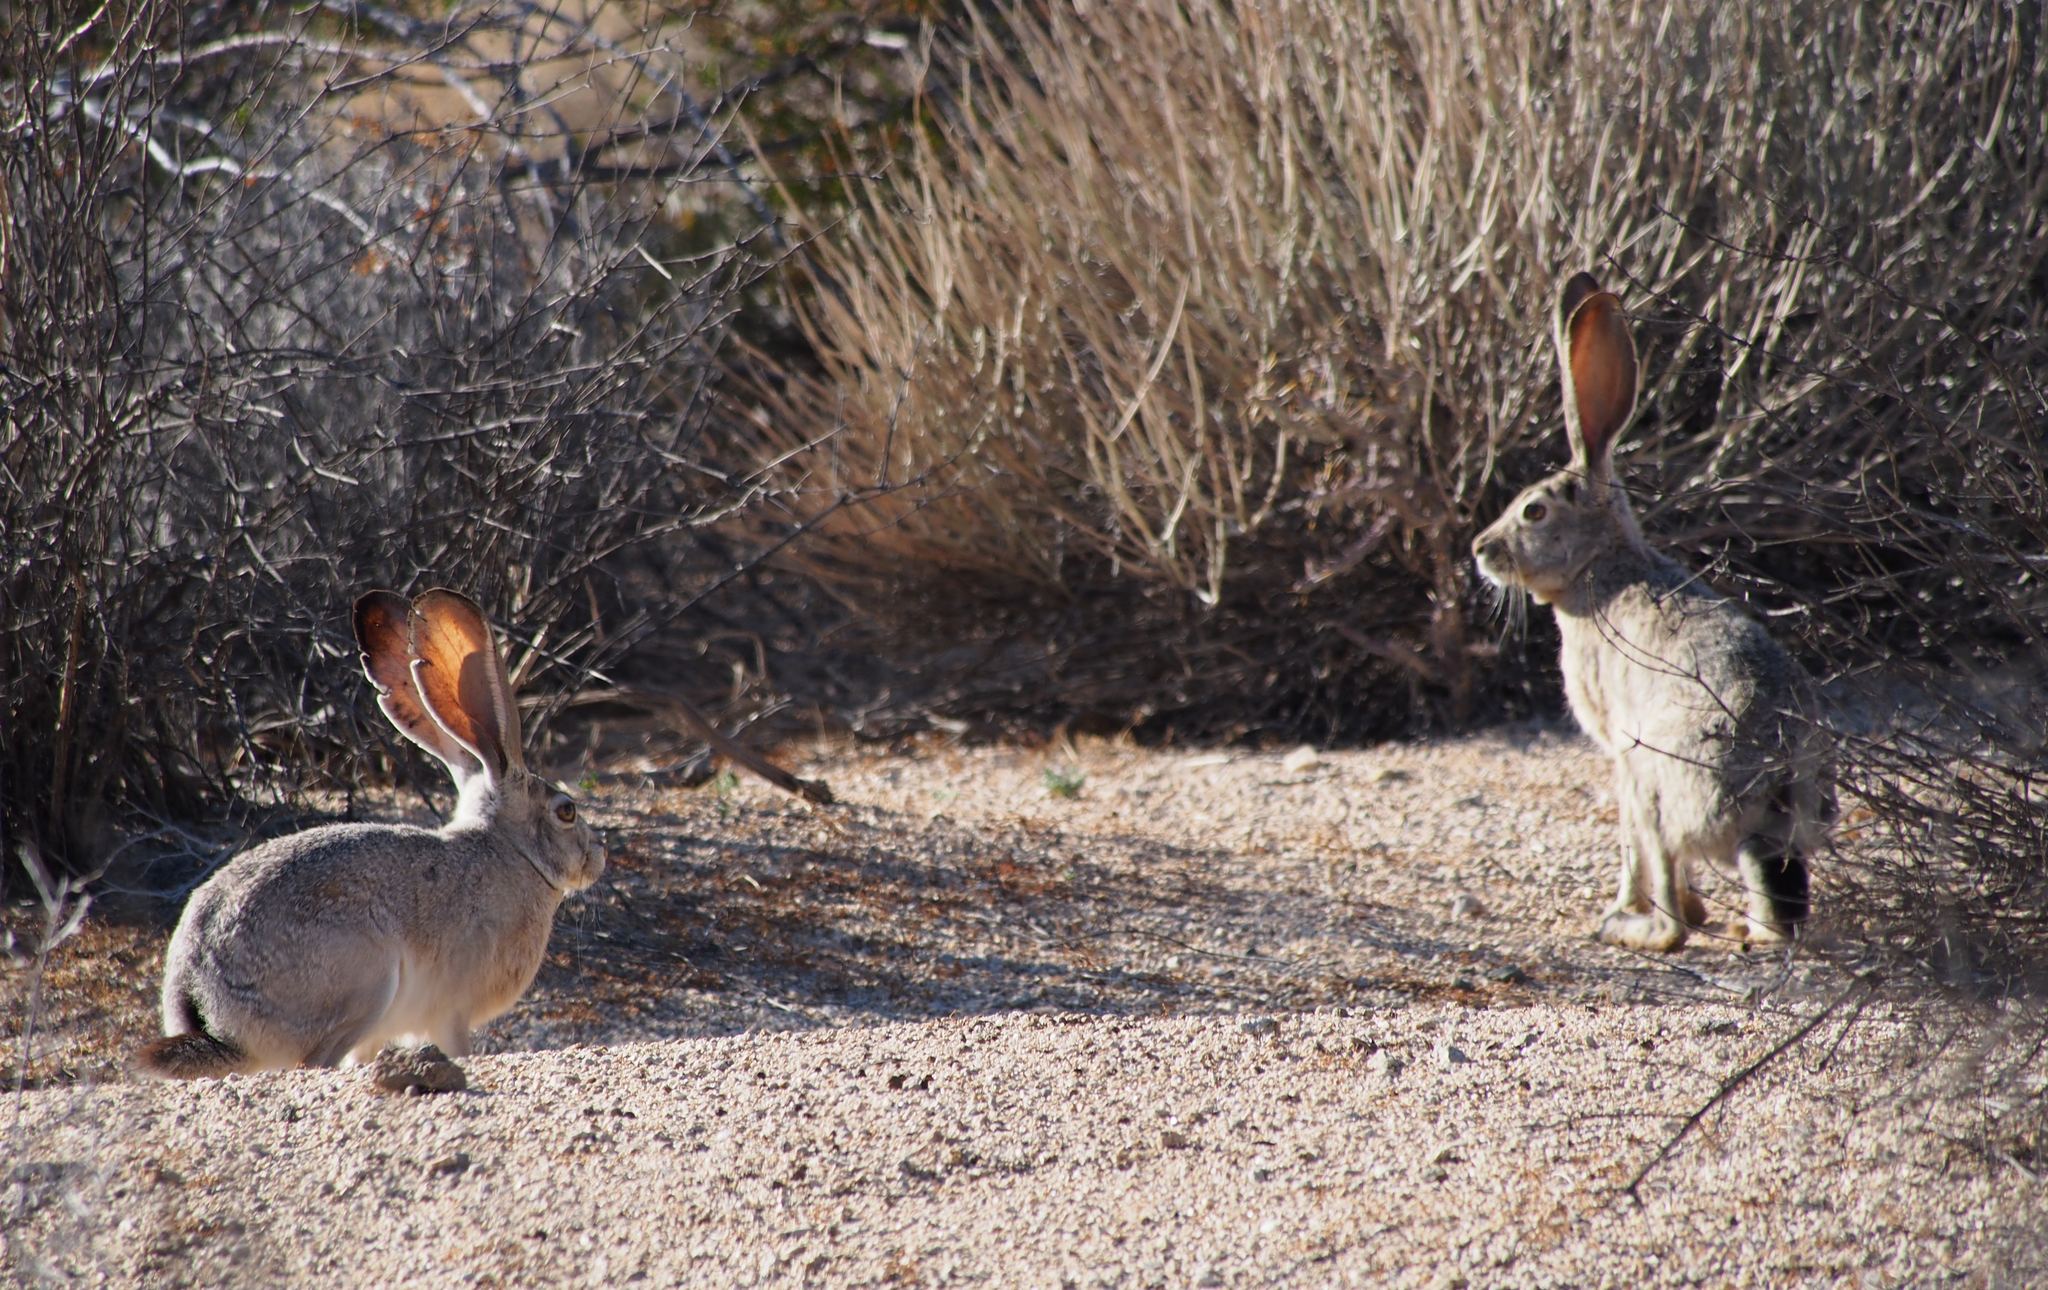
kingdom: Animalia
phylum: Chordata
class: Mammalia
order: Lagomorpha
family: Leporidae
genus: Lepus
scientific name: Lepus californicus
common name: Black-tailed jackrabbit
